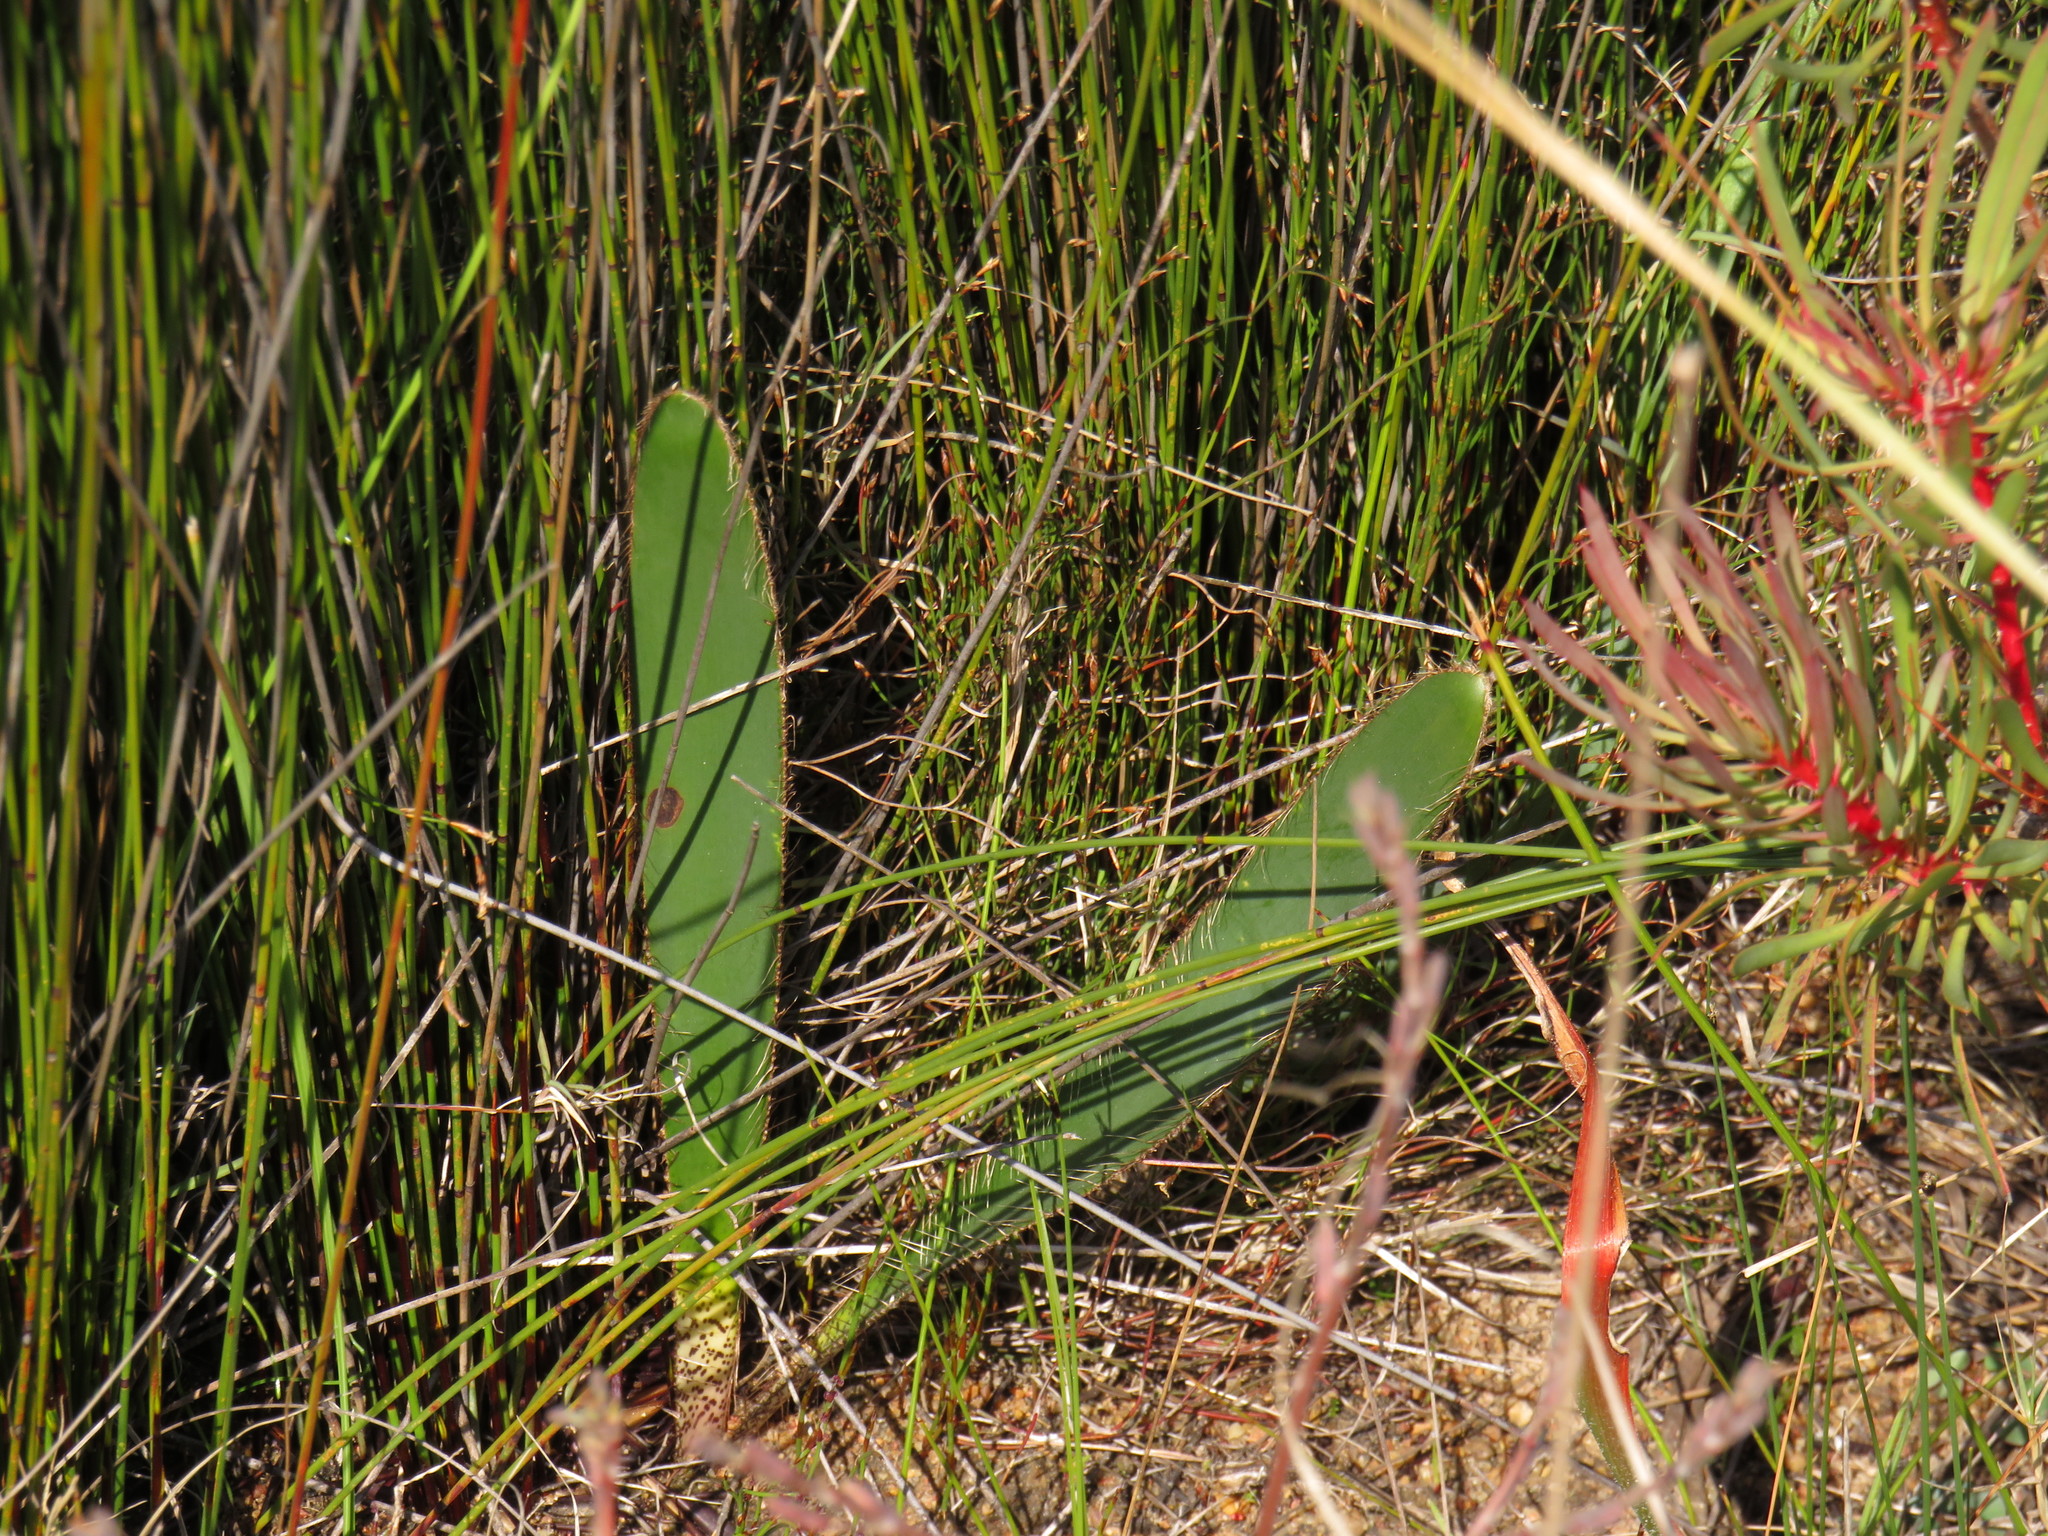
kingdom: Plantae
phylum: Tracheophyta
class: Liliopsida
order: Asparagales
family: Amaryllidaceae
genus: Crossyne
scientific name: Crossyne guttata
